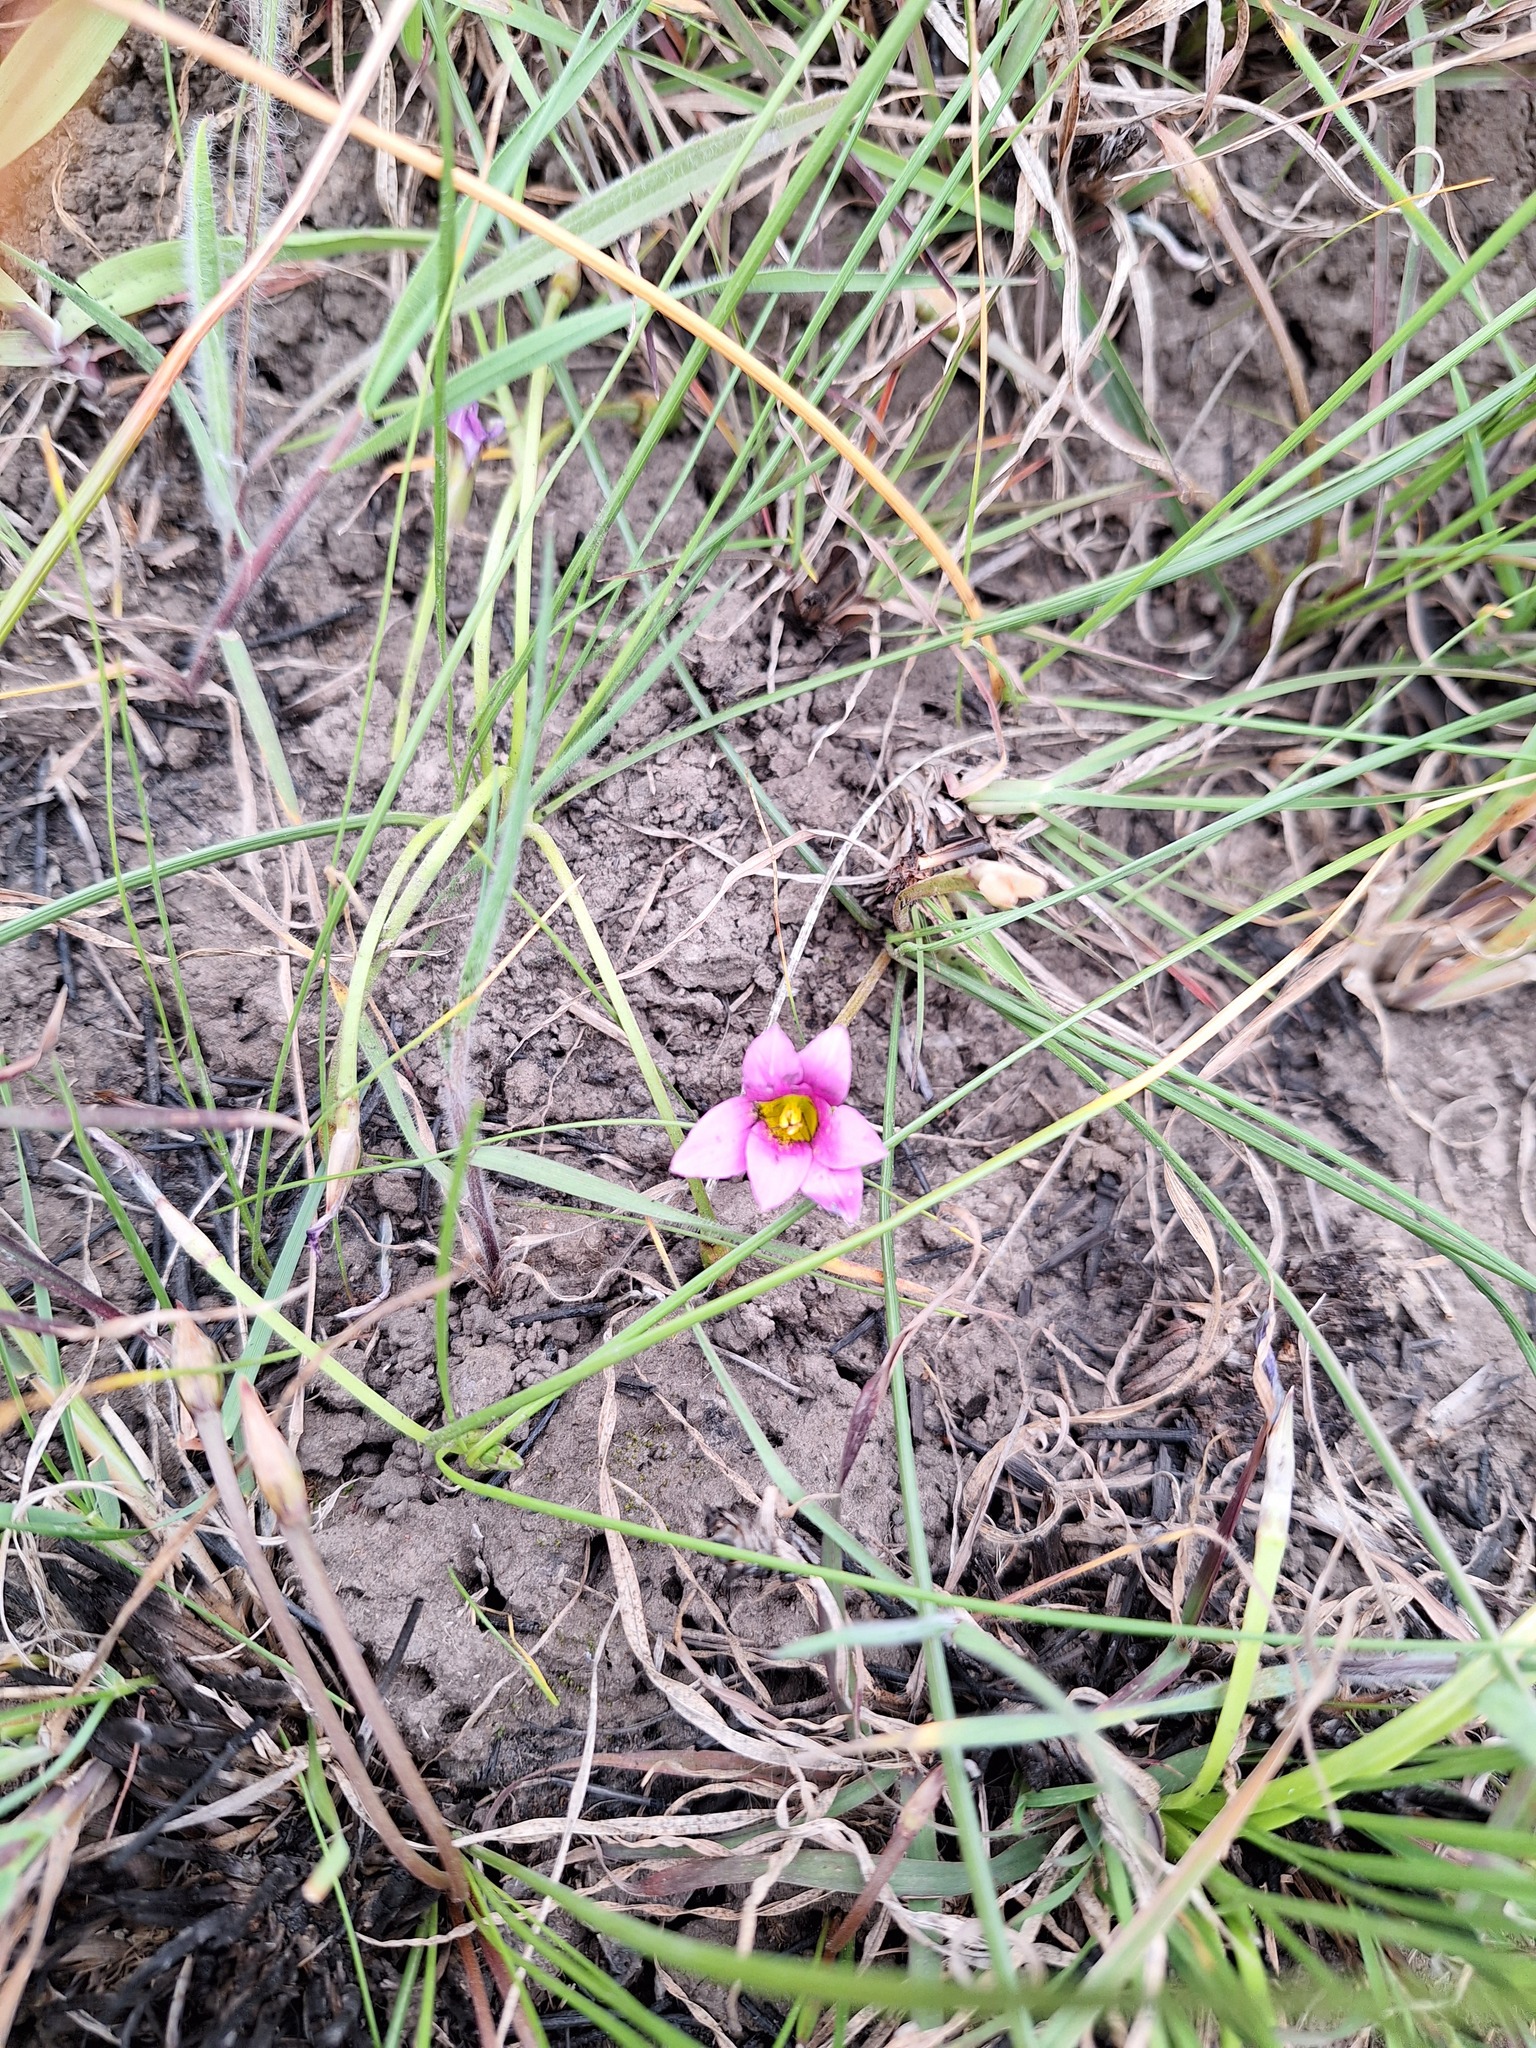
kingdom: Plantae
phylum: Tracheophyta
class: Liliopsida
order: Asparagales
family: Iridaceae
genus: Romulea
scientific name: Romulea rosea
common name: Oniongrass
